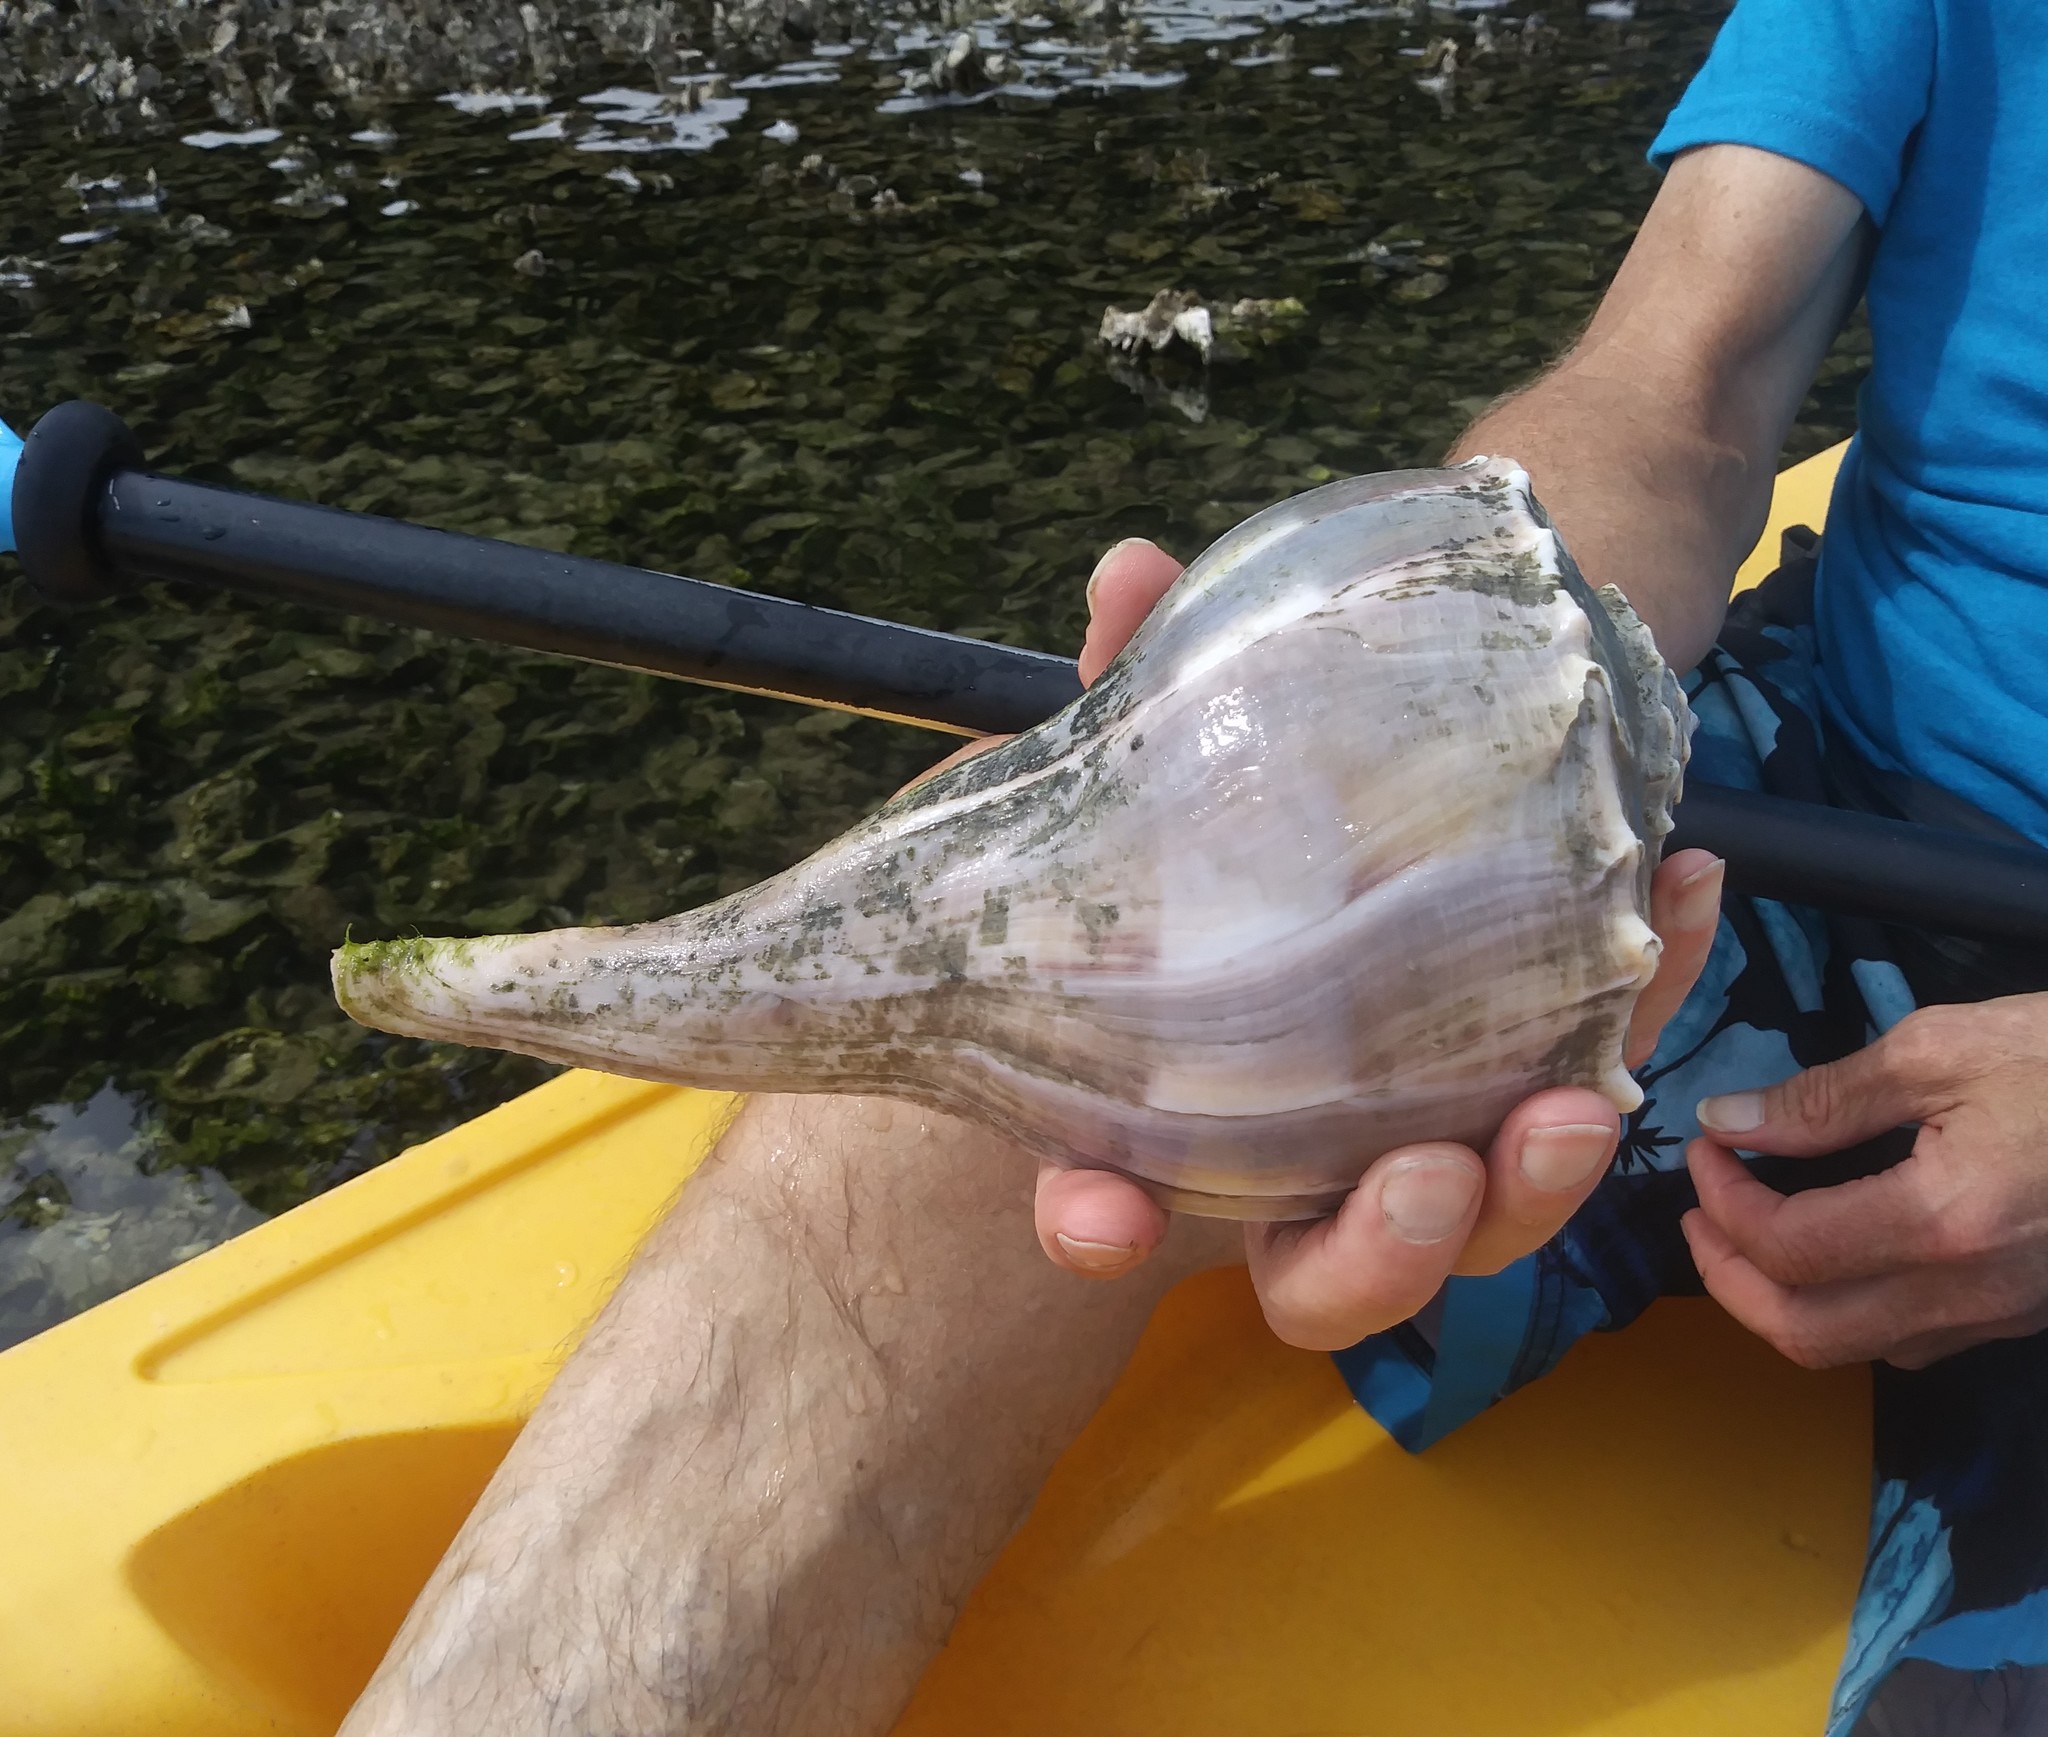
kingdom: Animalia
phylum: Mollusca
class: Gastropoda
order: Neogastropoda
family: Busyconidae
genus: Sinistrofulgur
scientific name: Sinistrofulgur sinistrum
